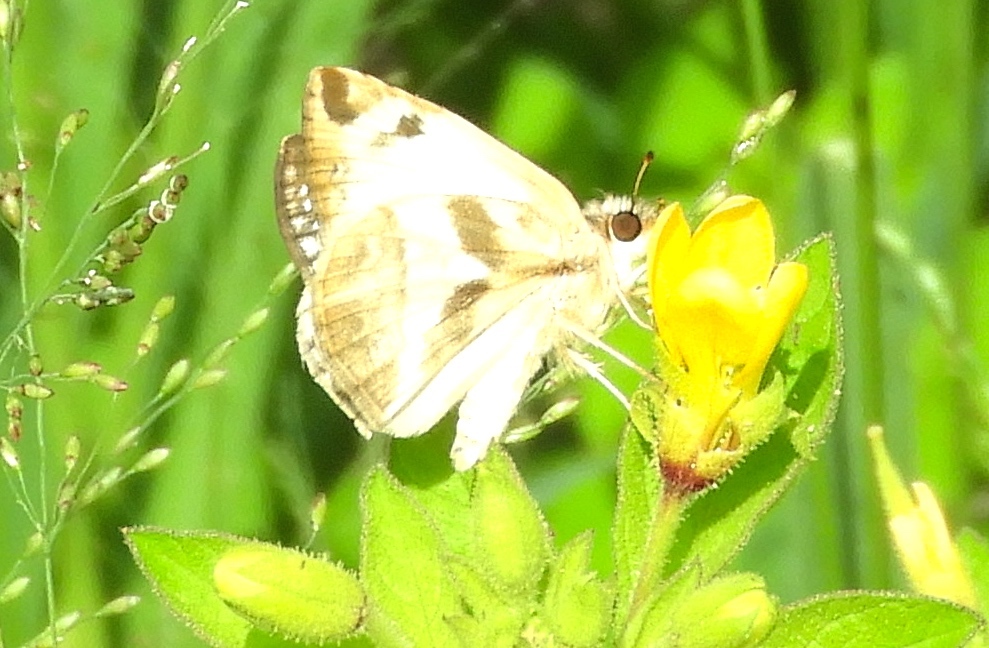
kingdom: Animalia
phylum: Arthropoda
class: Insecta
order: Lepidoptera
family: Hesperiidae
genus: Heliopetes
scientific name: Heliopetes laviana
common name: Laviana white-skipper
